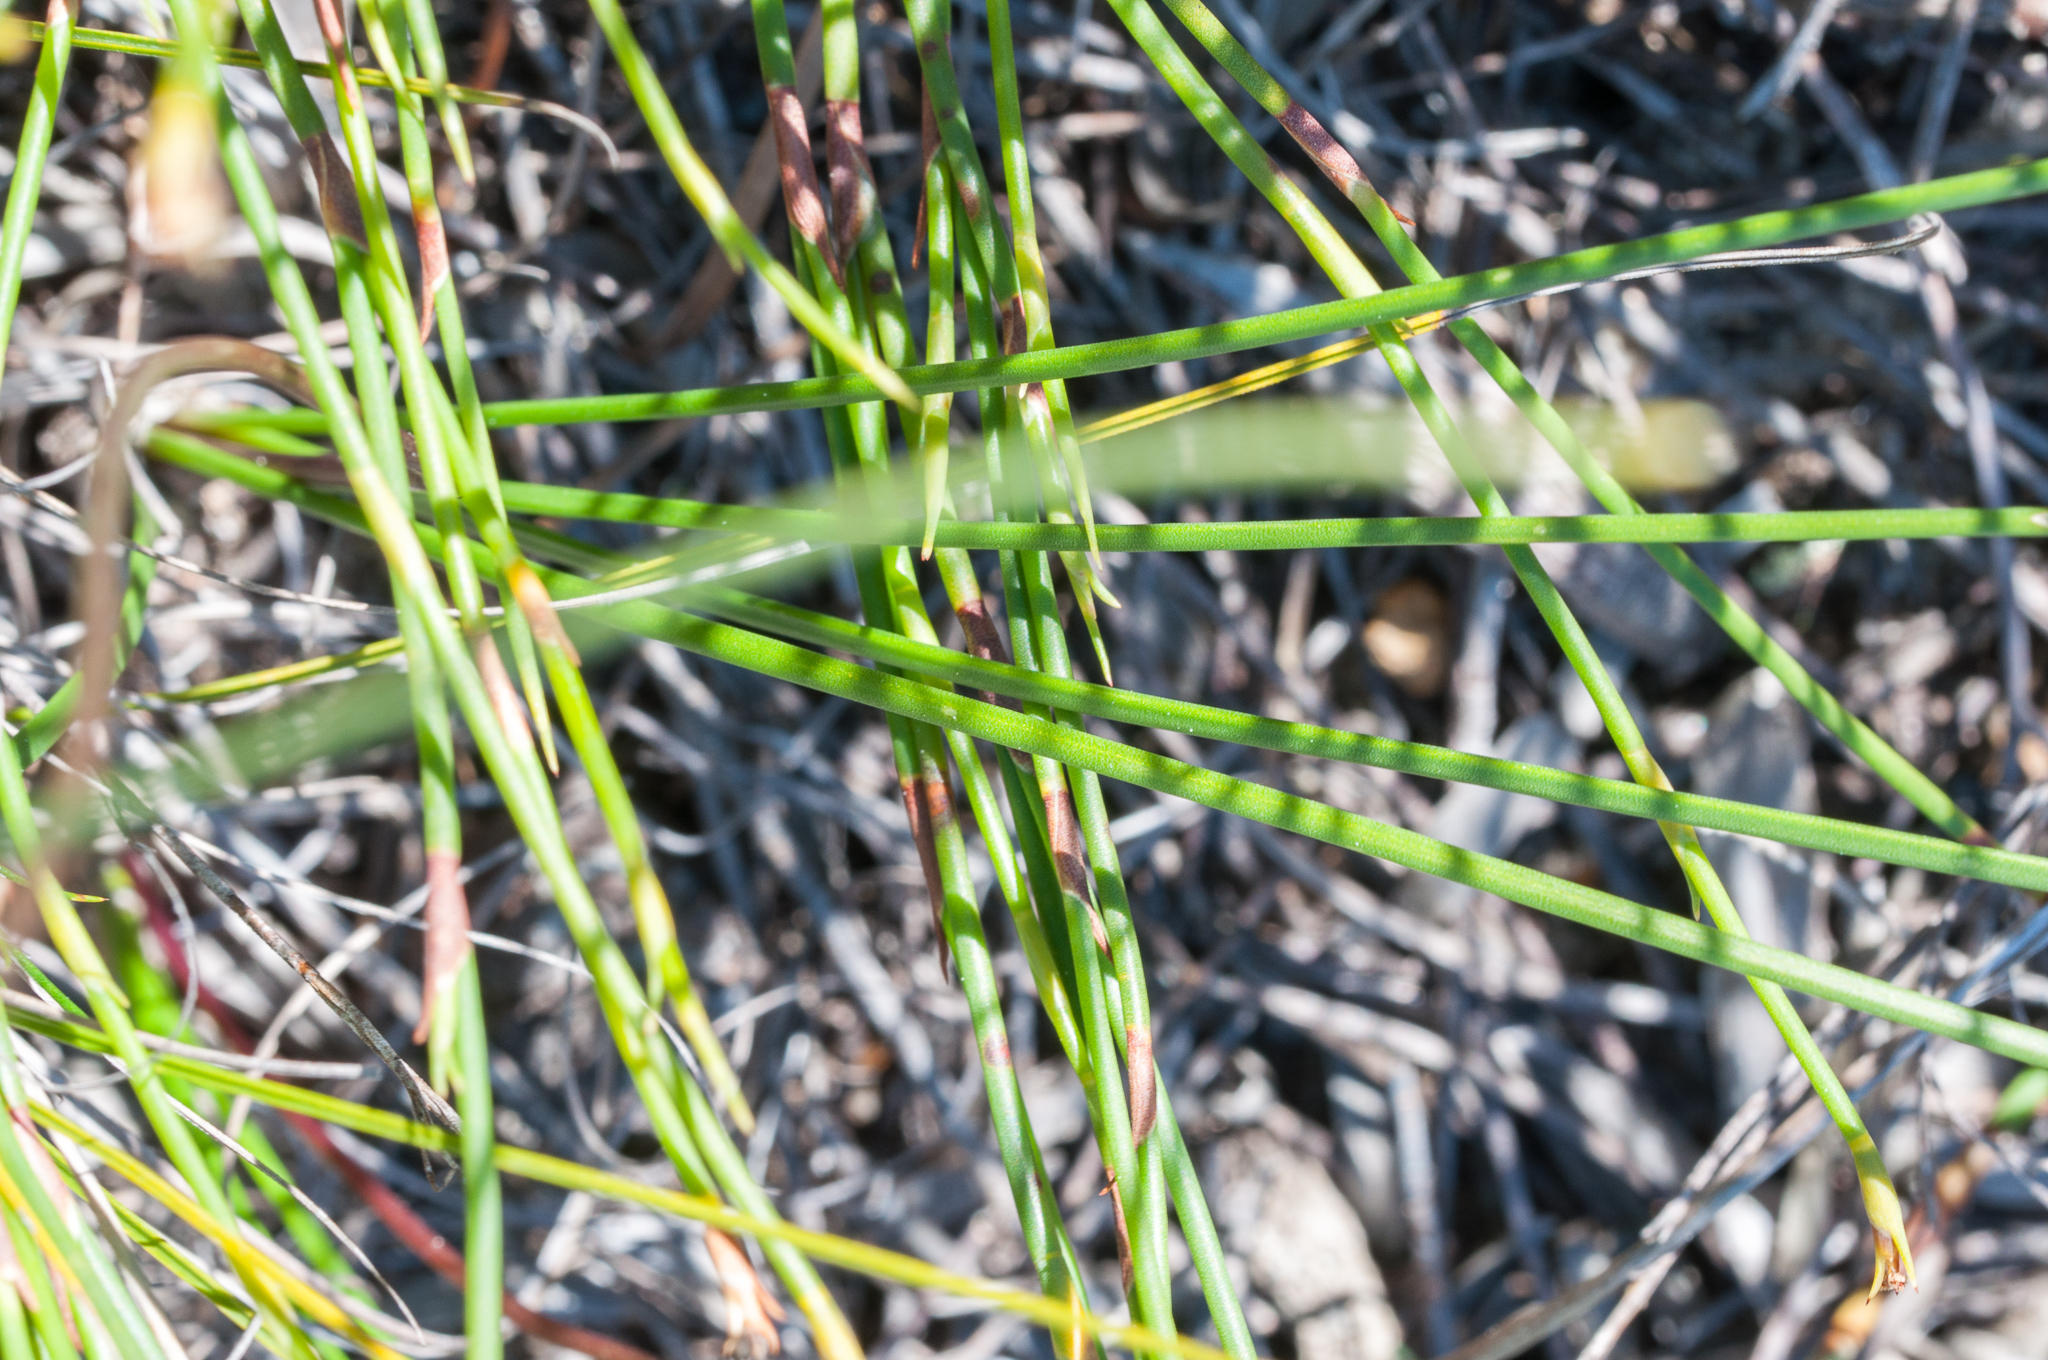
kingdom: Plantae
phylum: Tracheophyta
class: Liliopsida
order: Asparagales
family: Asparagaceae
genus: Drimia
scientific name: Drimia exuviata
